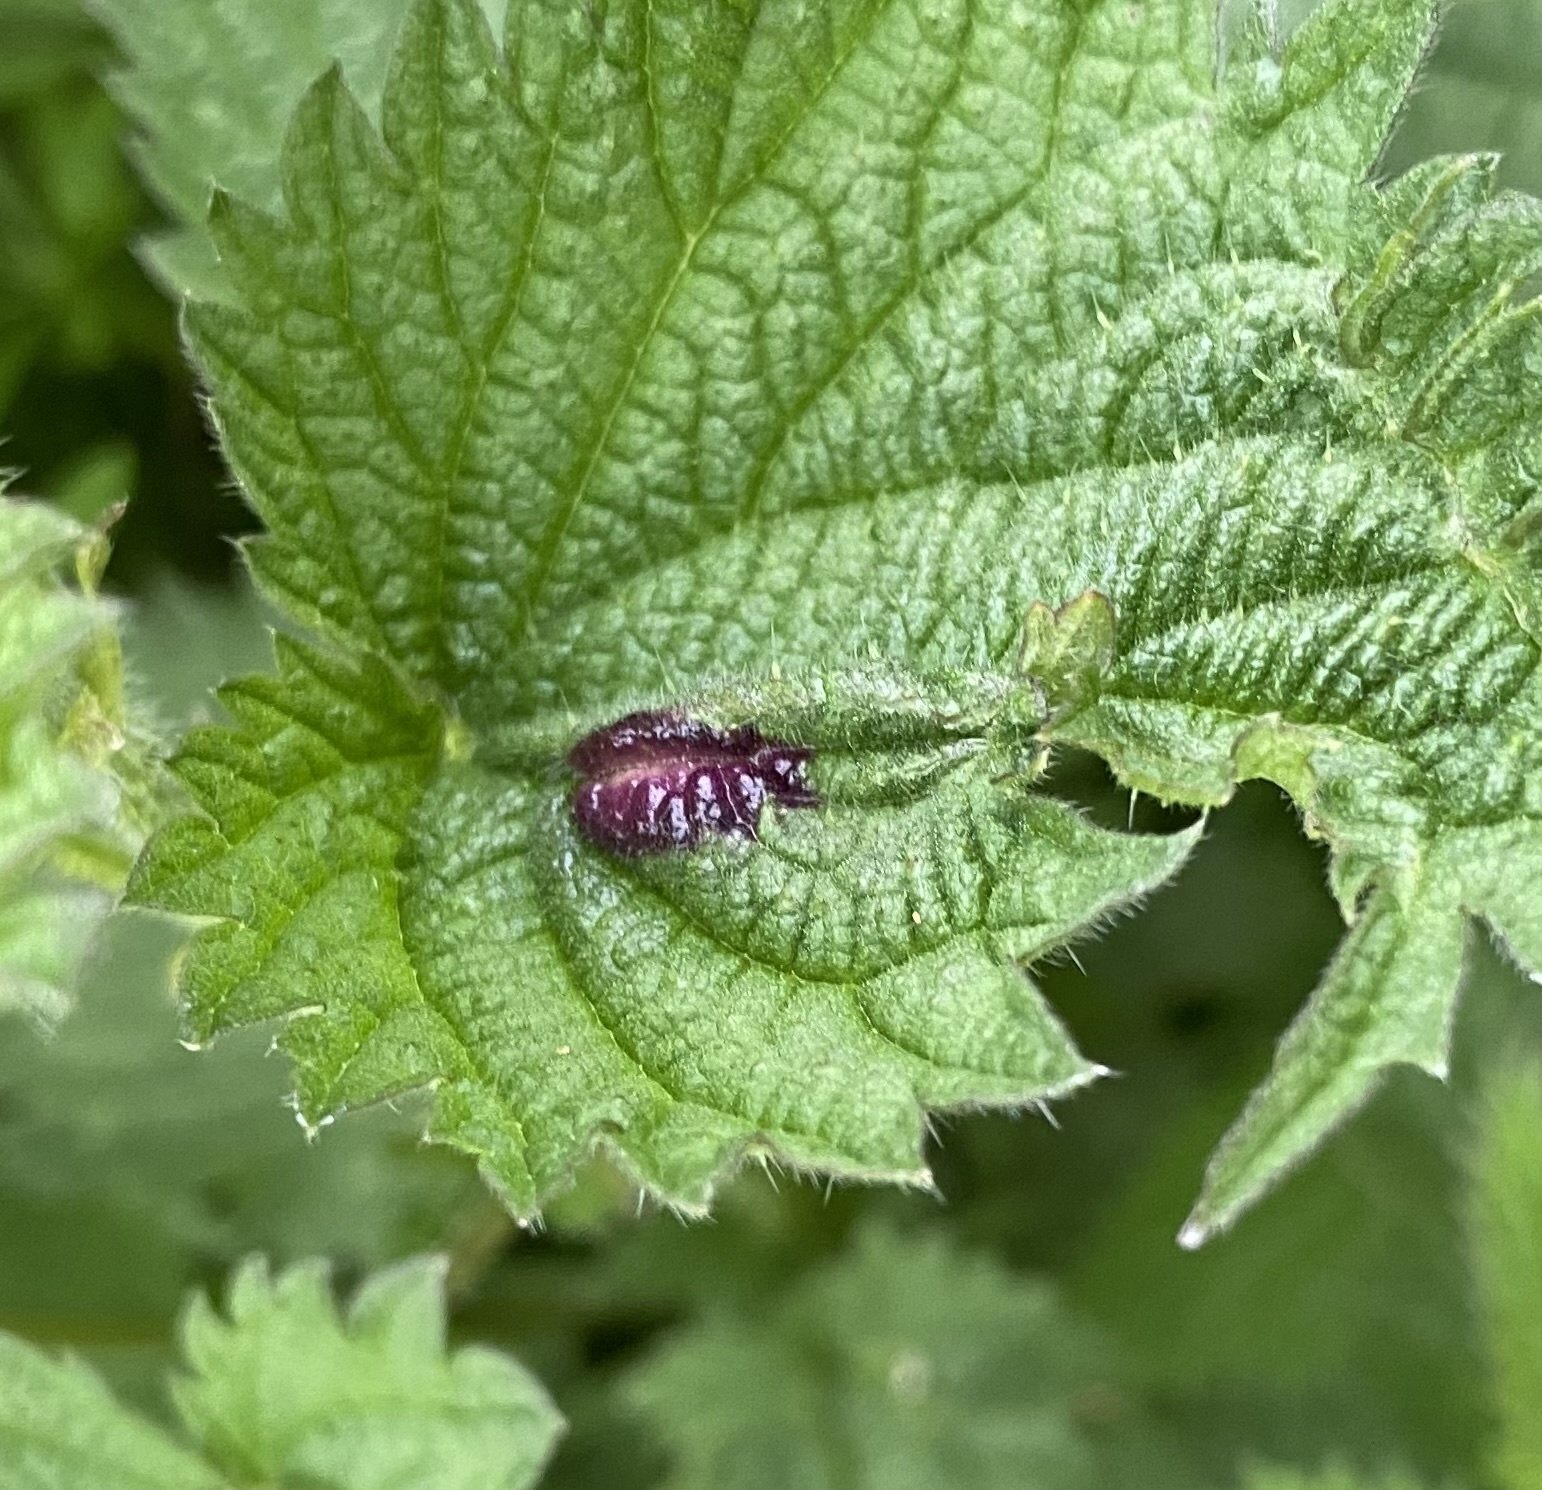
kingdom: Fungi
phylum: Basidiomycota
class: Pucciniomycetes
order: Pucciniales
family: Pucciniaceae
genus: Puccinia
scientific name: Puccinia urticata
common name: Nettle clustercup rust fungus
